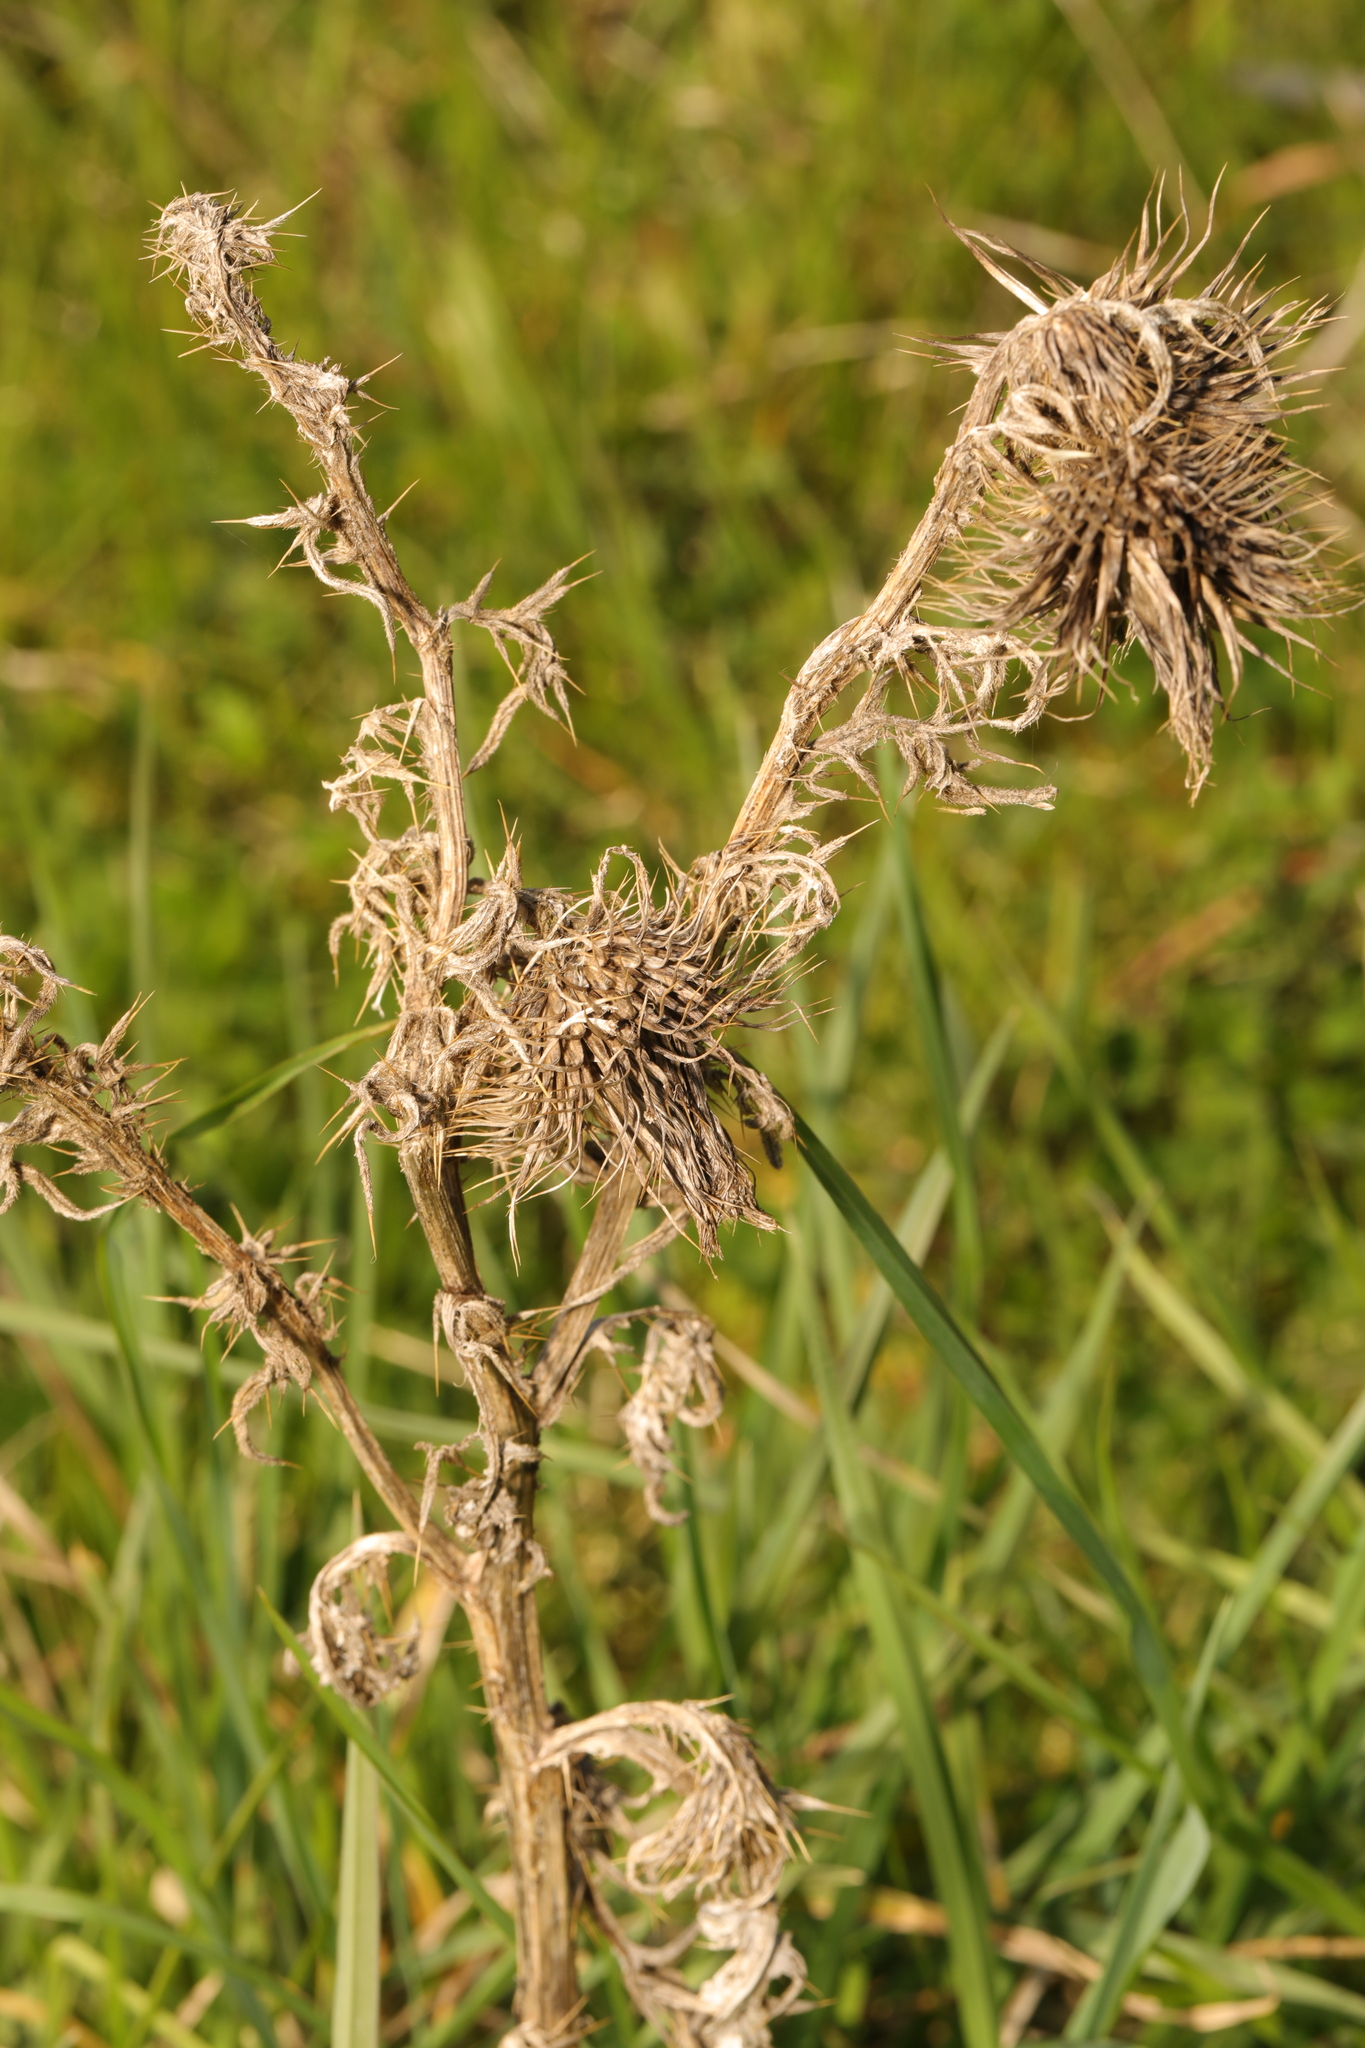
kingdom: Plantae
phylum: Tracheophyta
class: Magnoliopsida
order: Asterales
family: Asteraceae
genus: Cirsium
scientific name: Cirsium vulgare
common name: Bull thistle
